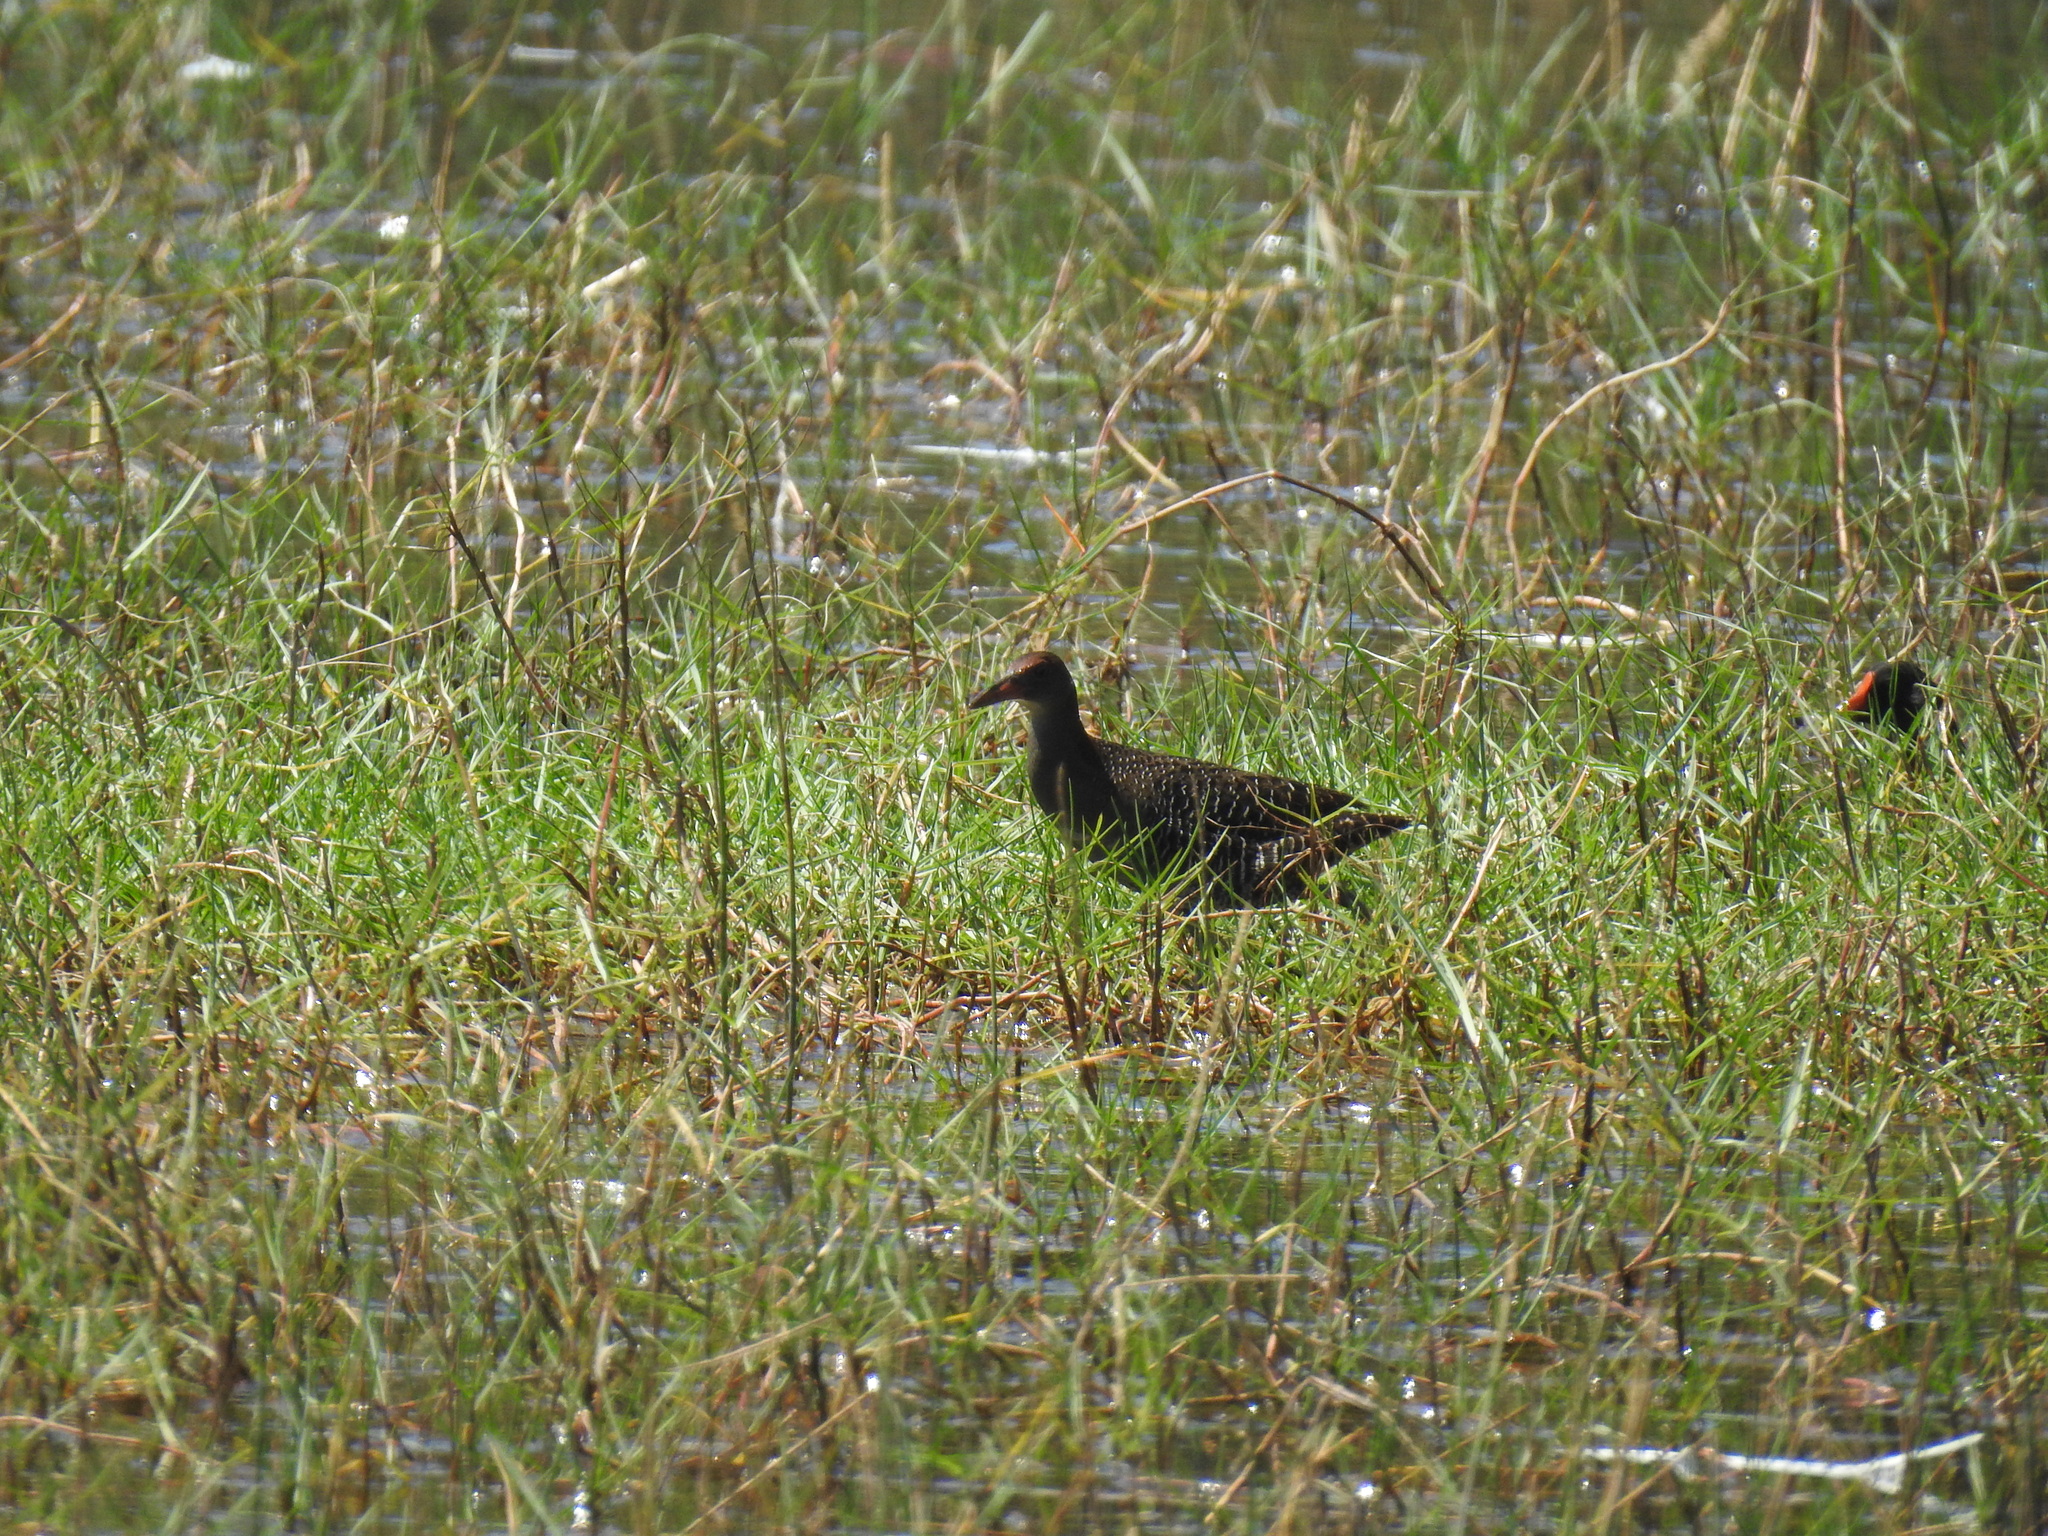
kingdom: Animalia
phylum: Chordata
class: Aves
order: Gruiformes
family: Rallidae
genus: Gallirallus
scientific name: Gallirallus striatus
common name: Slaty-breasted rail
